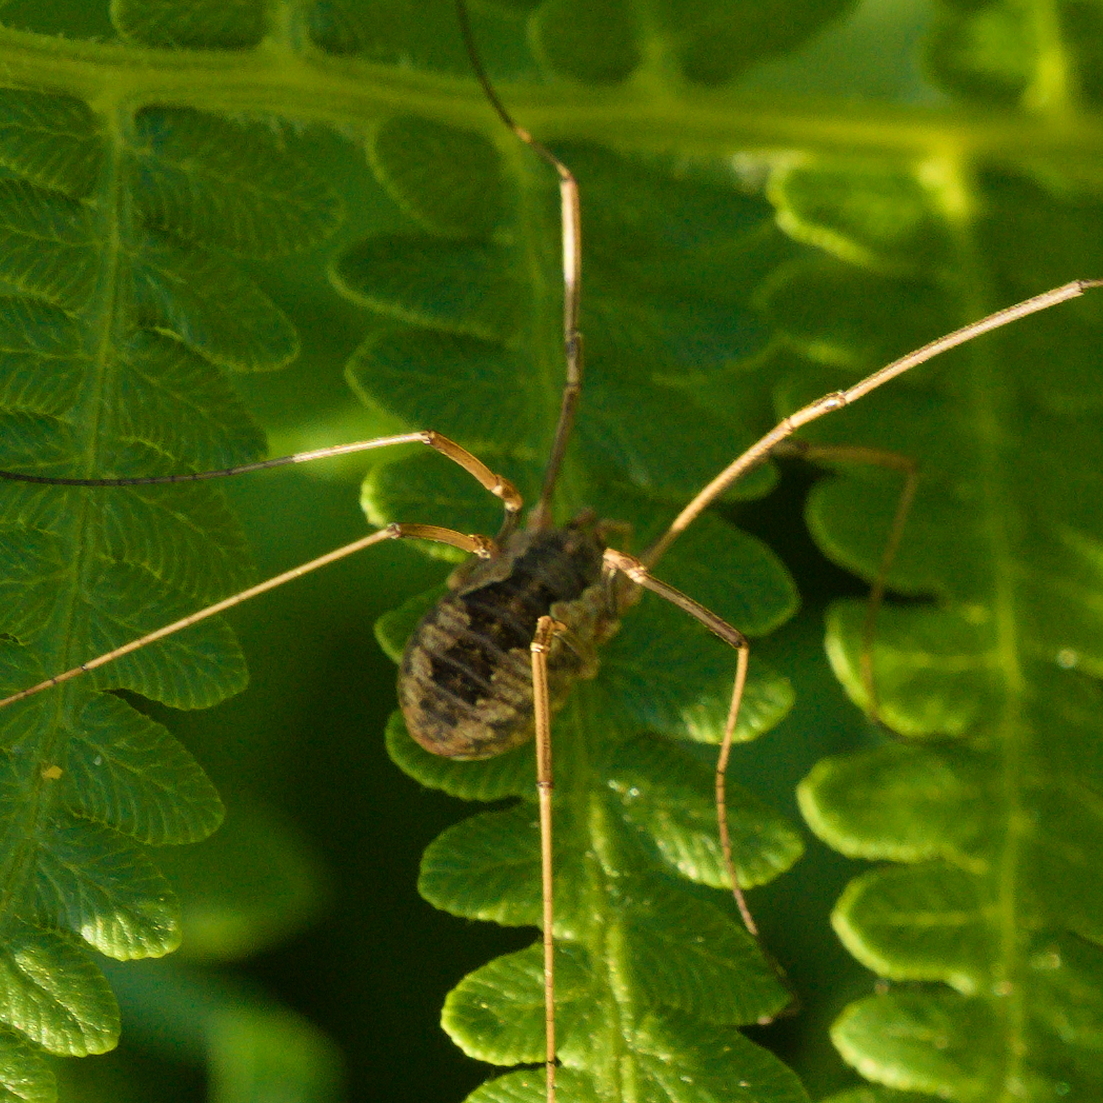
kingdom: Animalia
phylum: Arthropoda
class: Arachnida
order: Opiliones
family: Phalangiidae
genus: Phalangium
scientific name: Phalangium opilio
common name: Daddy longleg
